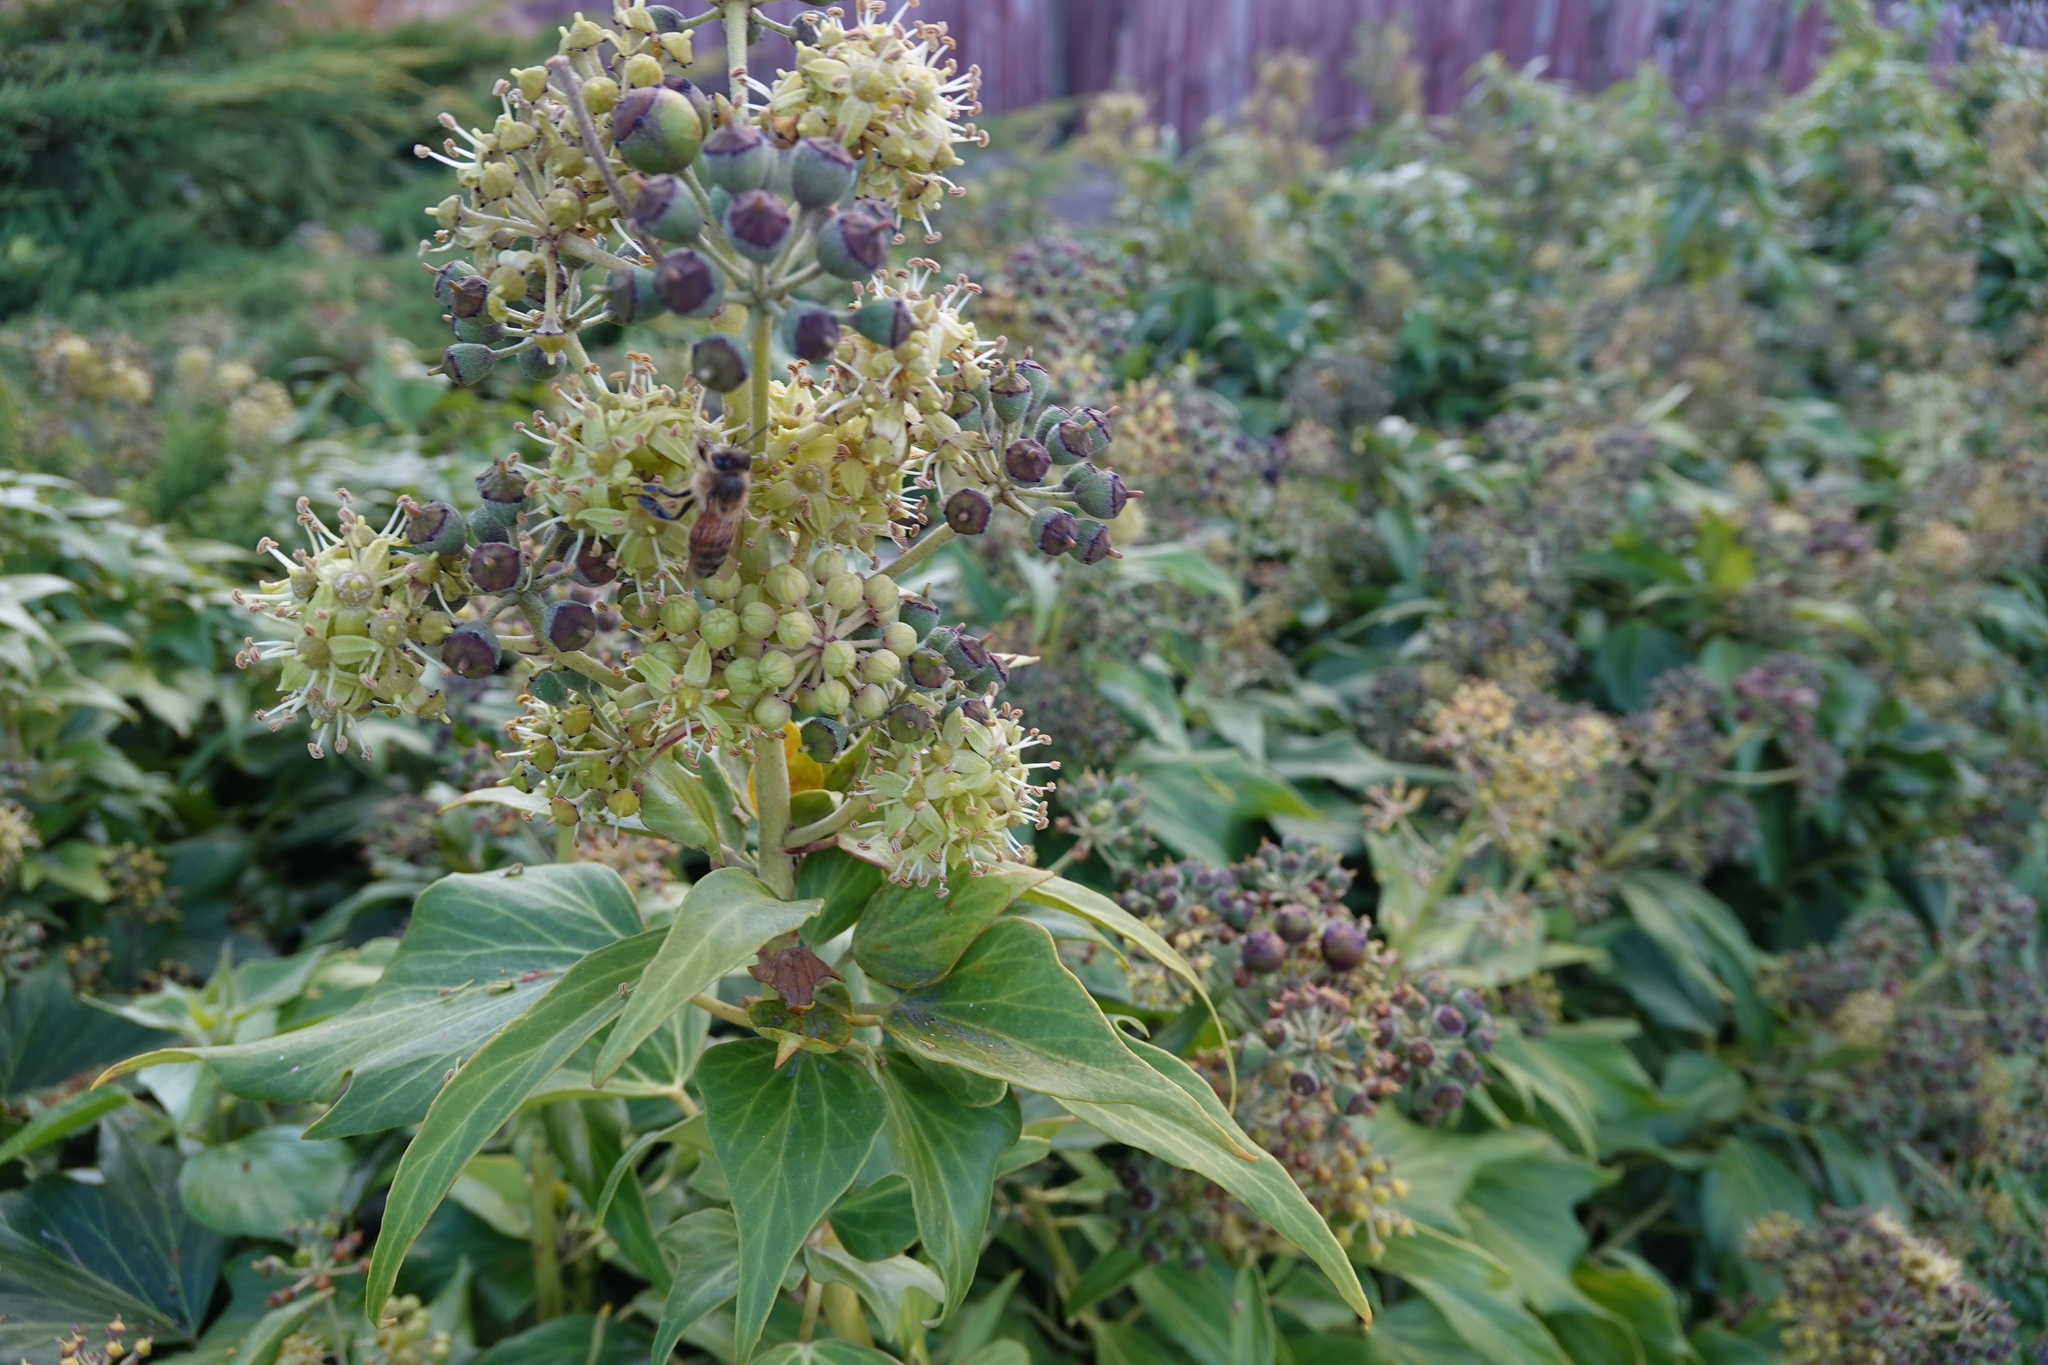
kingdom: Plantae
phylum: Tracheophyta
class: Magnoliopsida
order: Apiales
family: Araliaceae
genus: Hedera
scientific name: Hedera helix
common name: Ivy
